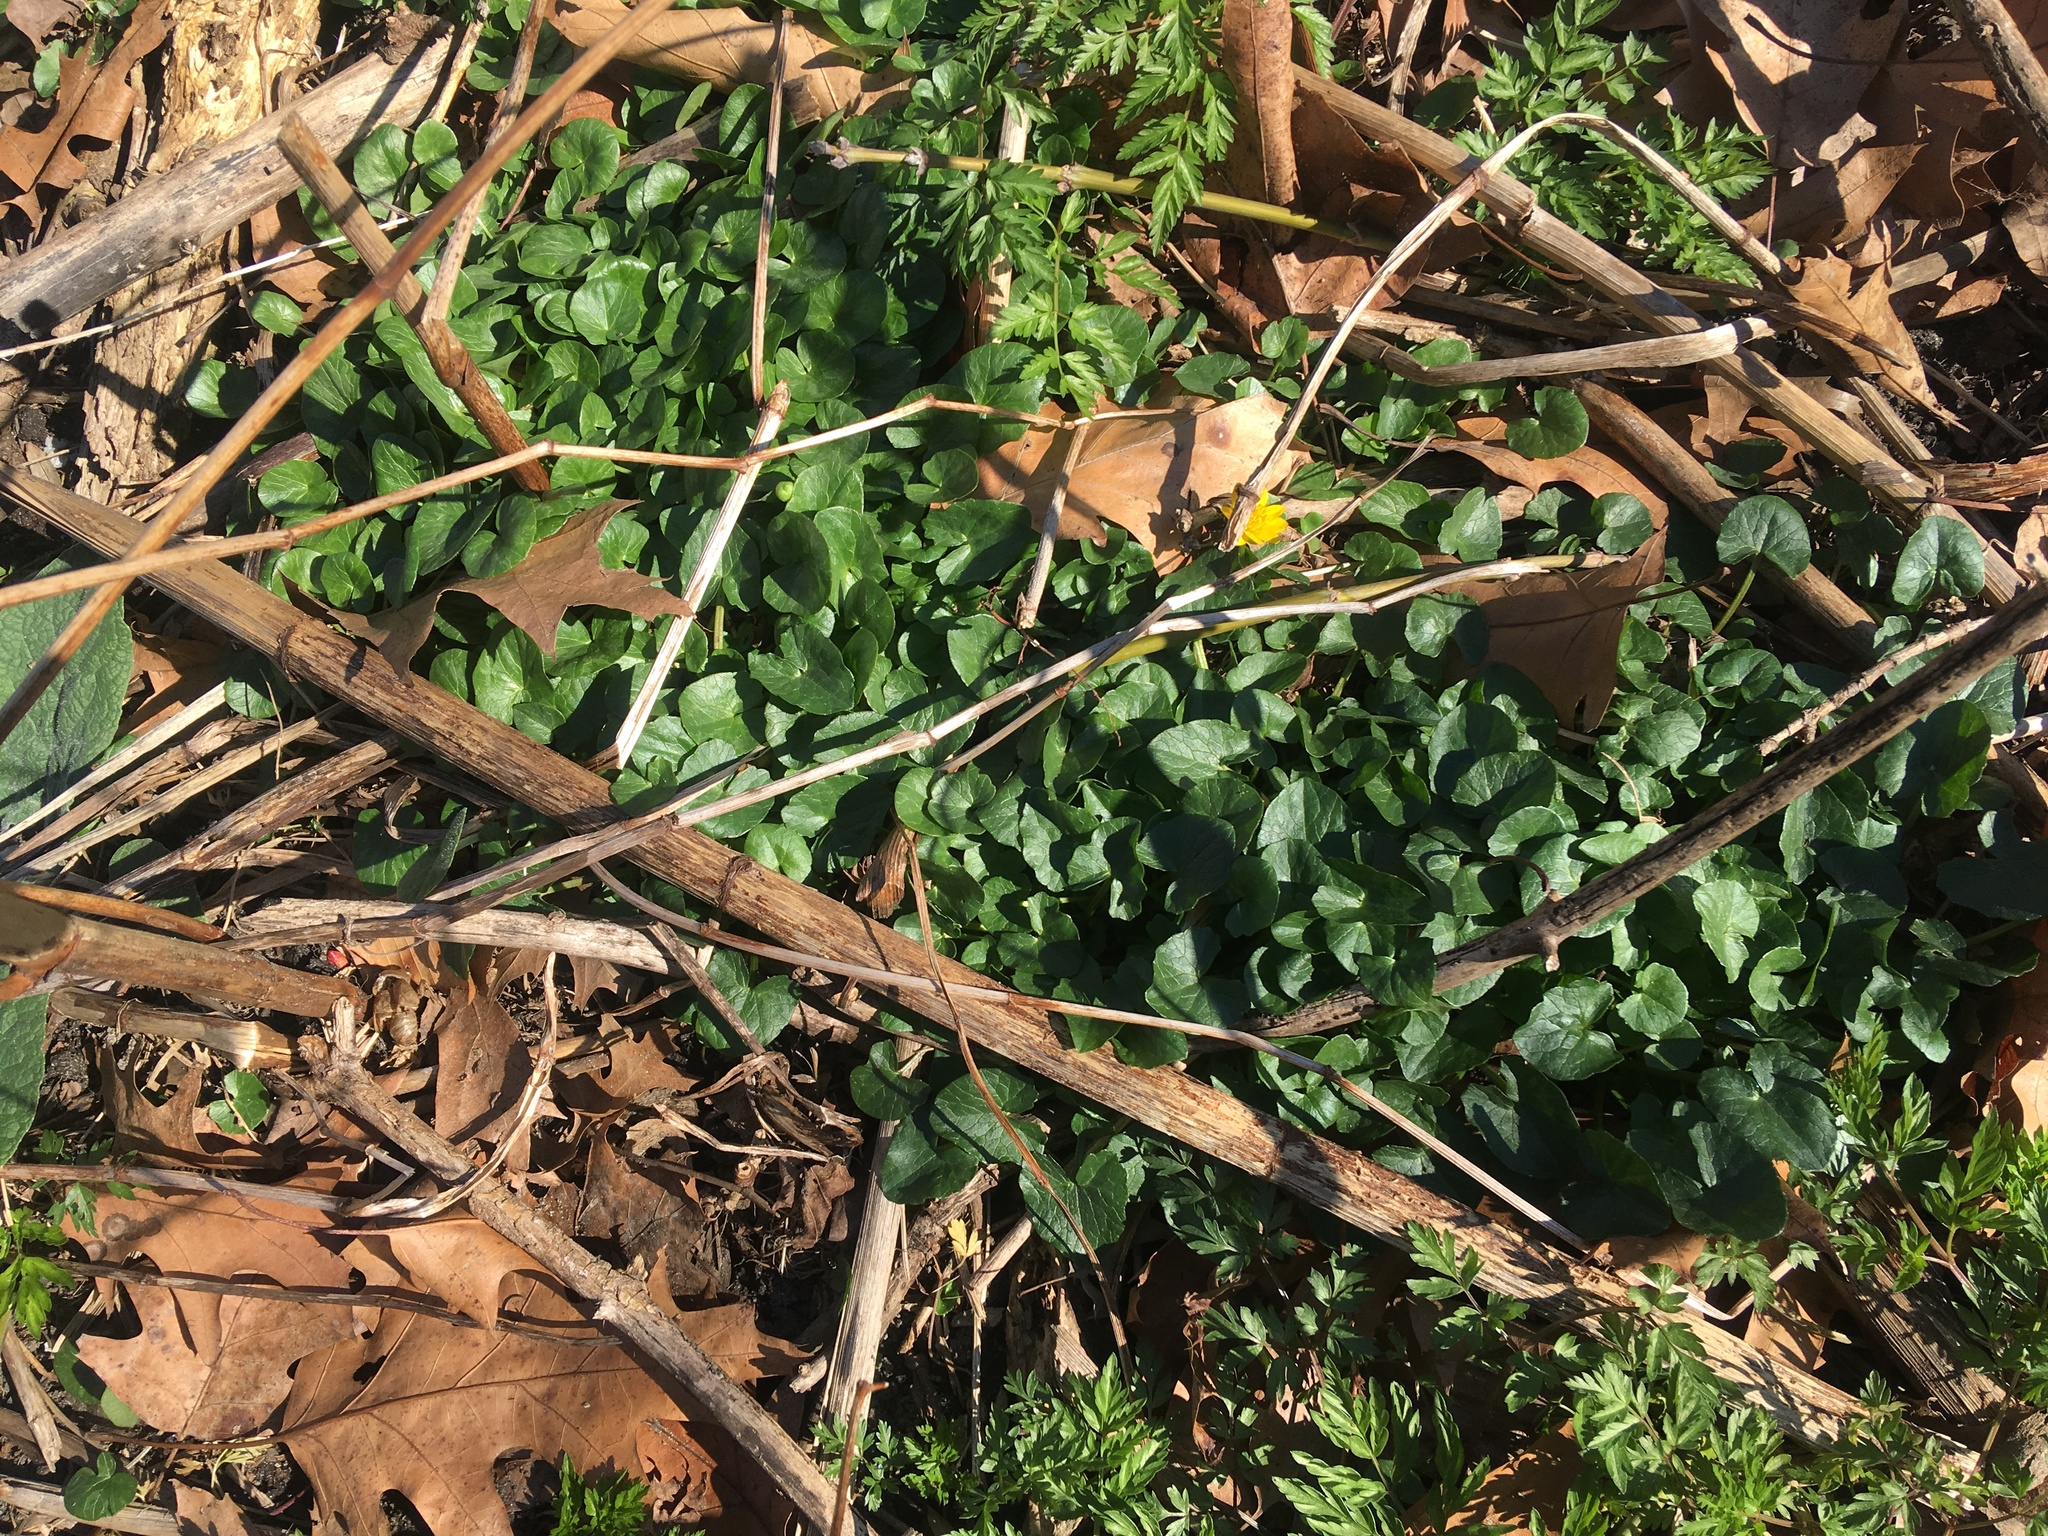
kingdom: Plantae
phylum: Tracheophyta
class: Magnoliopsida
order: Ranunculales
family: Ranunculaceae
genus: Ficaria
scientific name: Ficaria verna
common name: Lesser celandine
